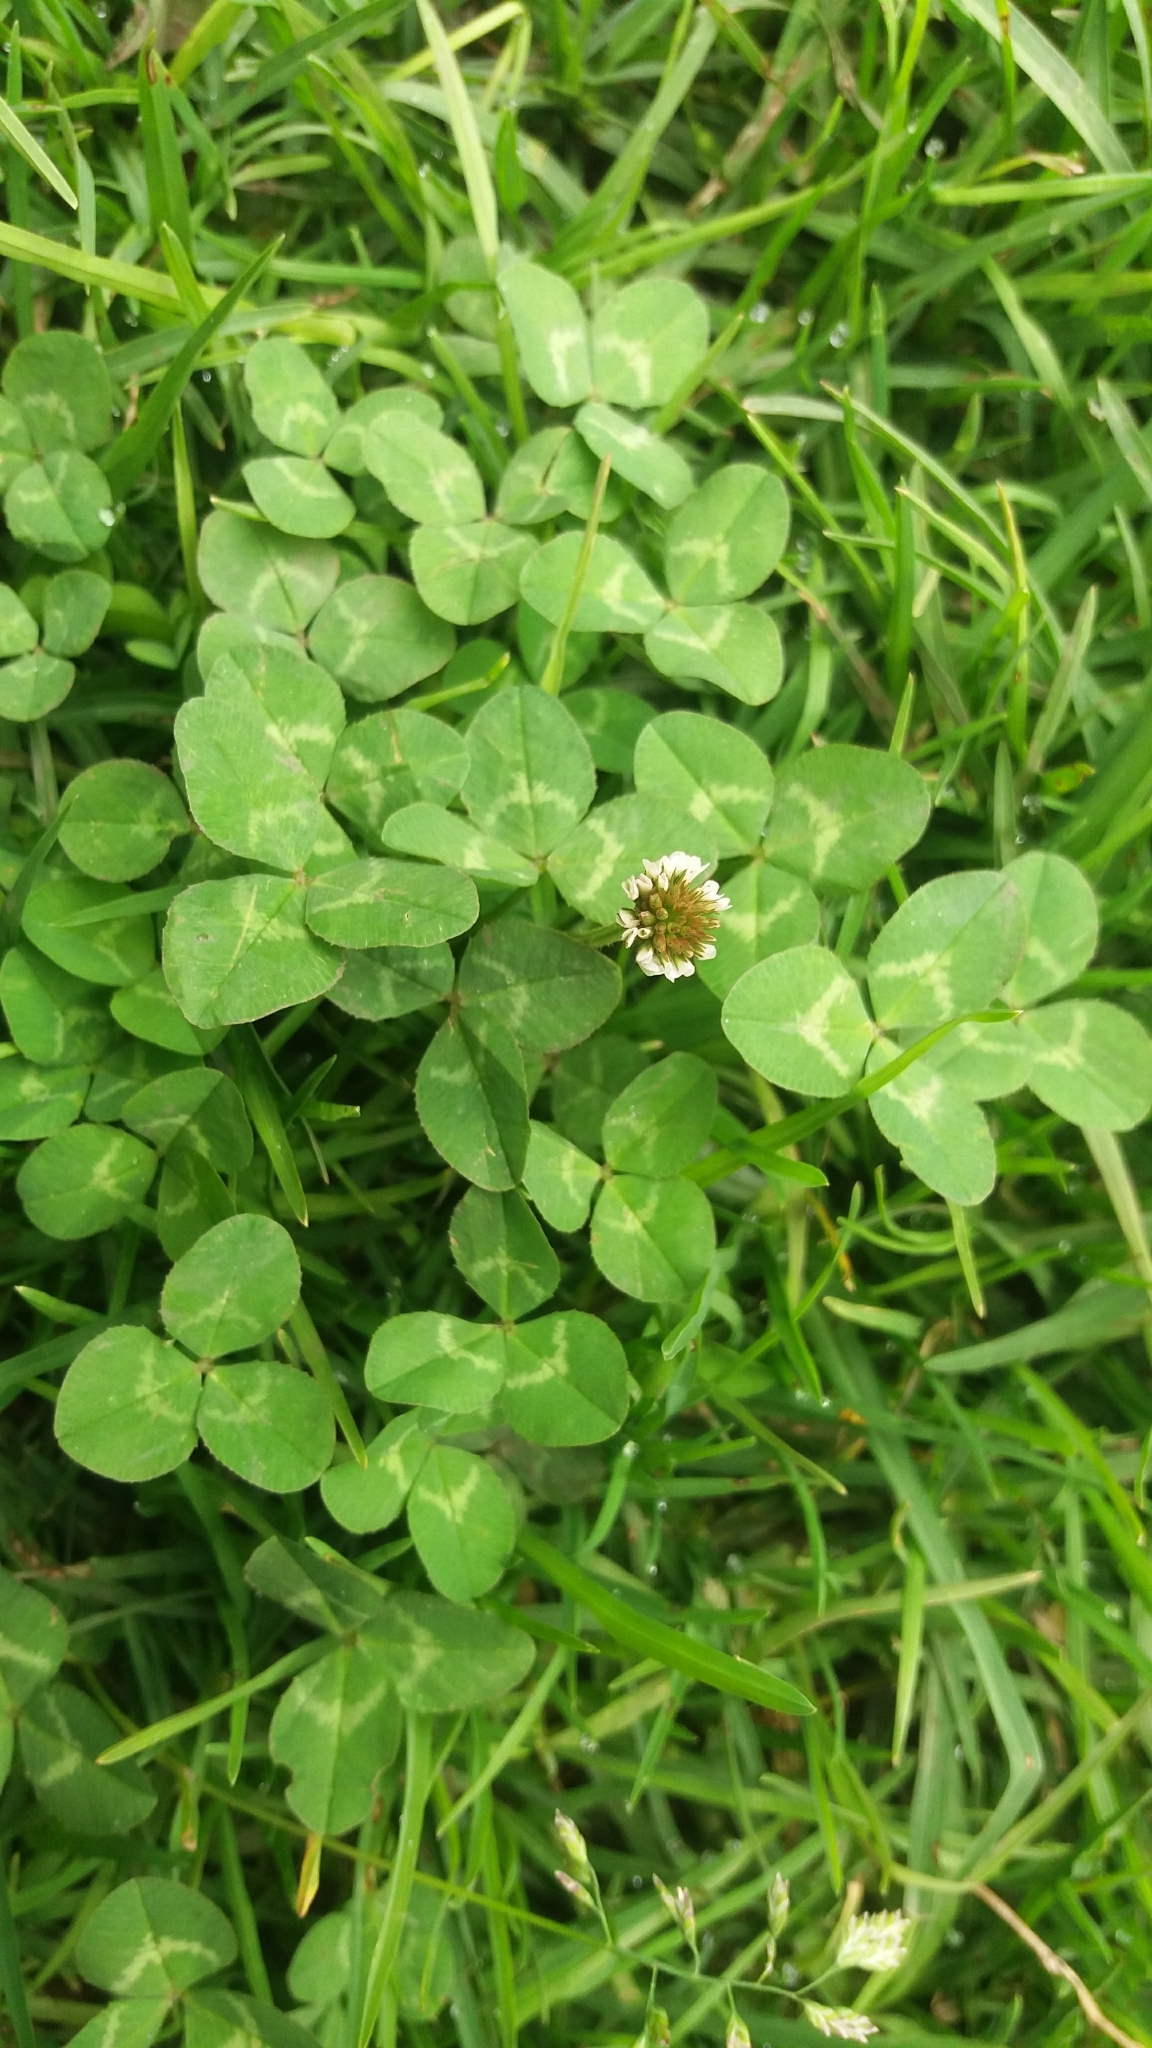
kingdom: Plantae
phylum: Tracheophyta
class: Magnoliopsida
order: Fabales
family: Fabaceae
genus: Trifolium
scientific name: Trifolium repens
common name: White clover
